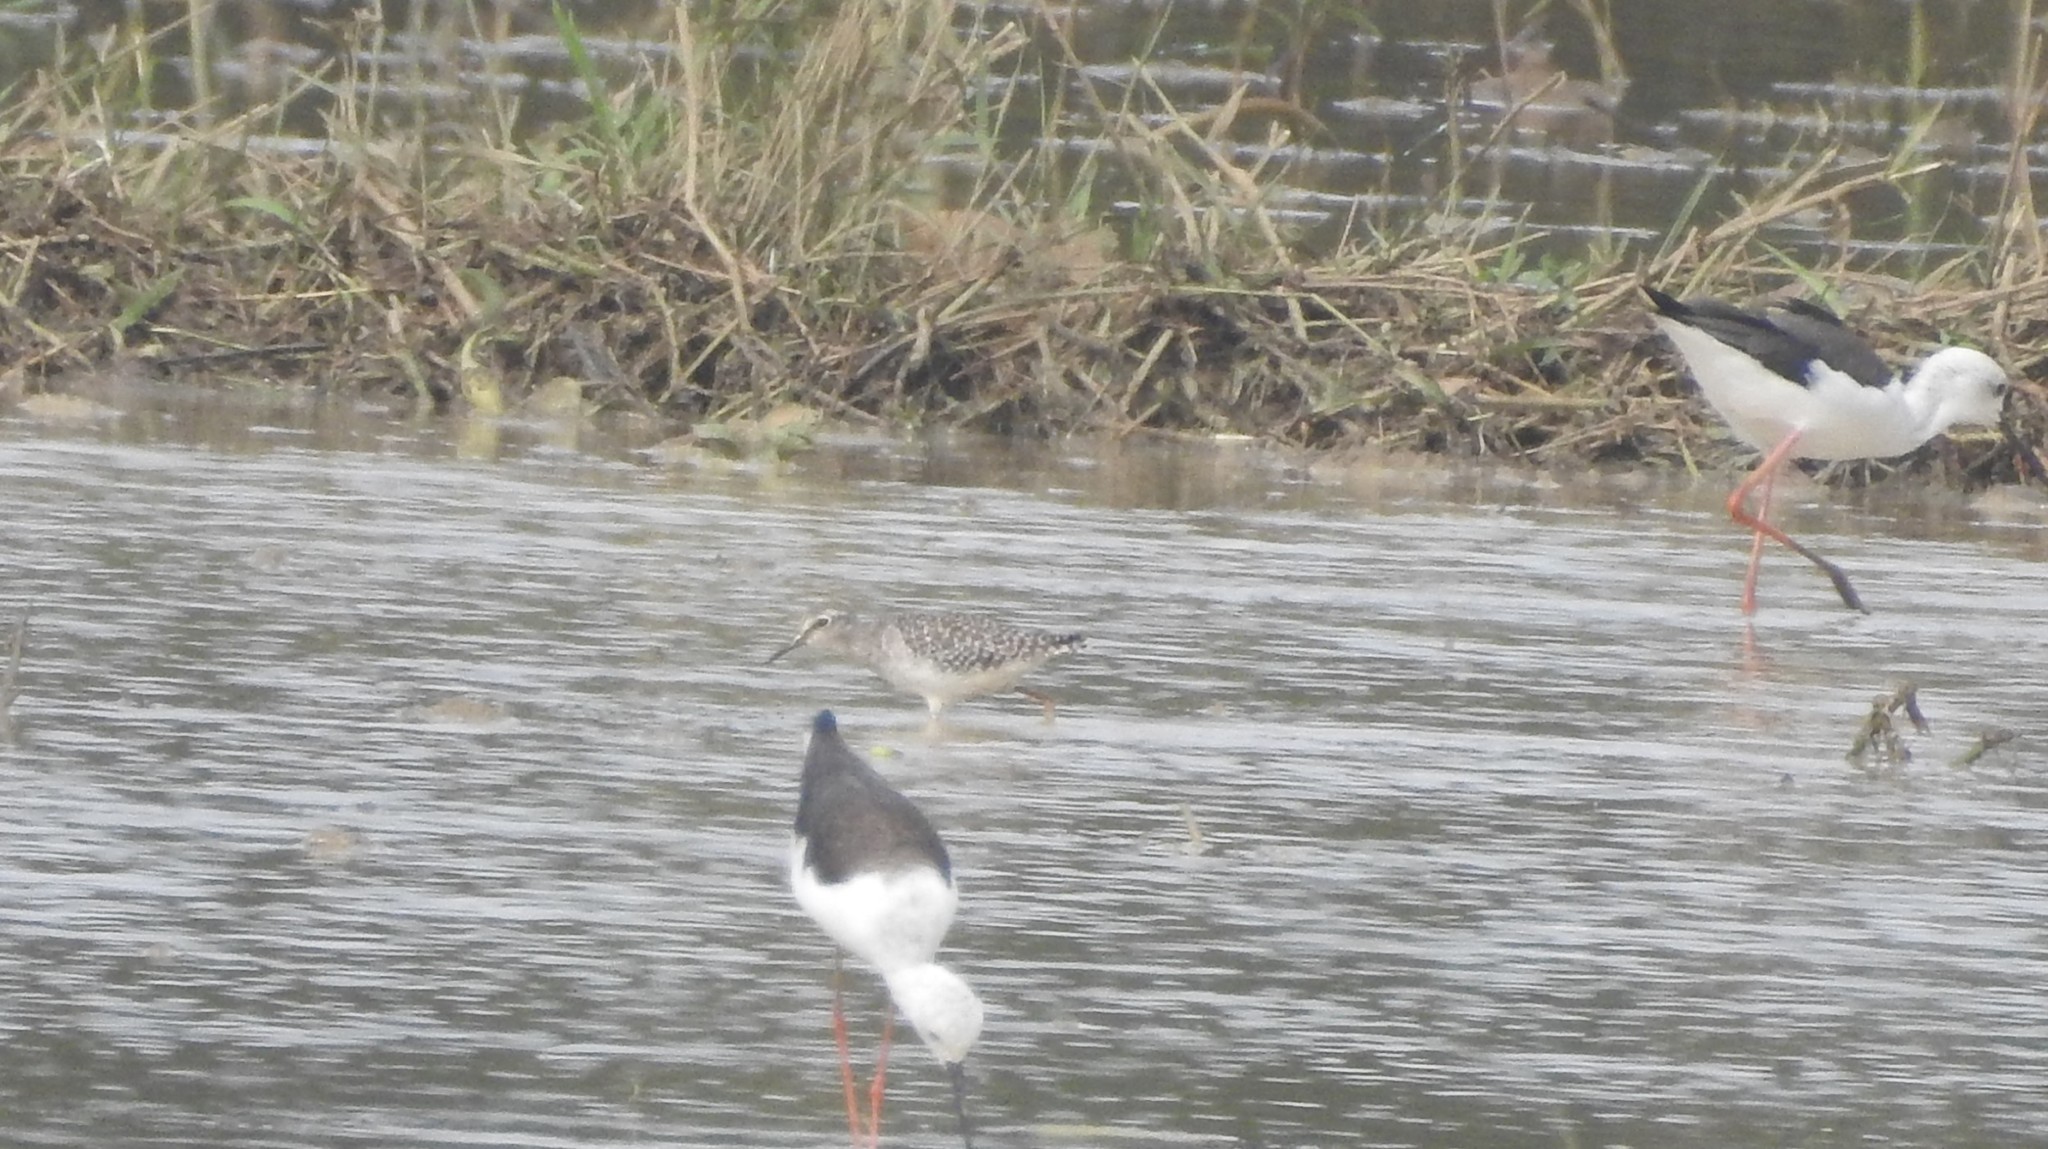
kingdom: Animalia
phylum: Chordata
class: Aves
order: Charadriiformes
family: Scolopacidae
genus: Tringa
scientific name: Tringa glareola
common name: Wood sandpiper
